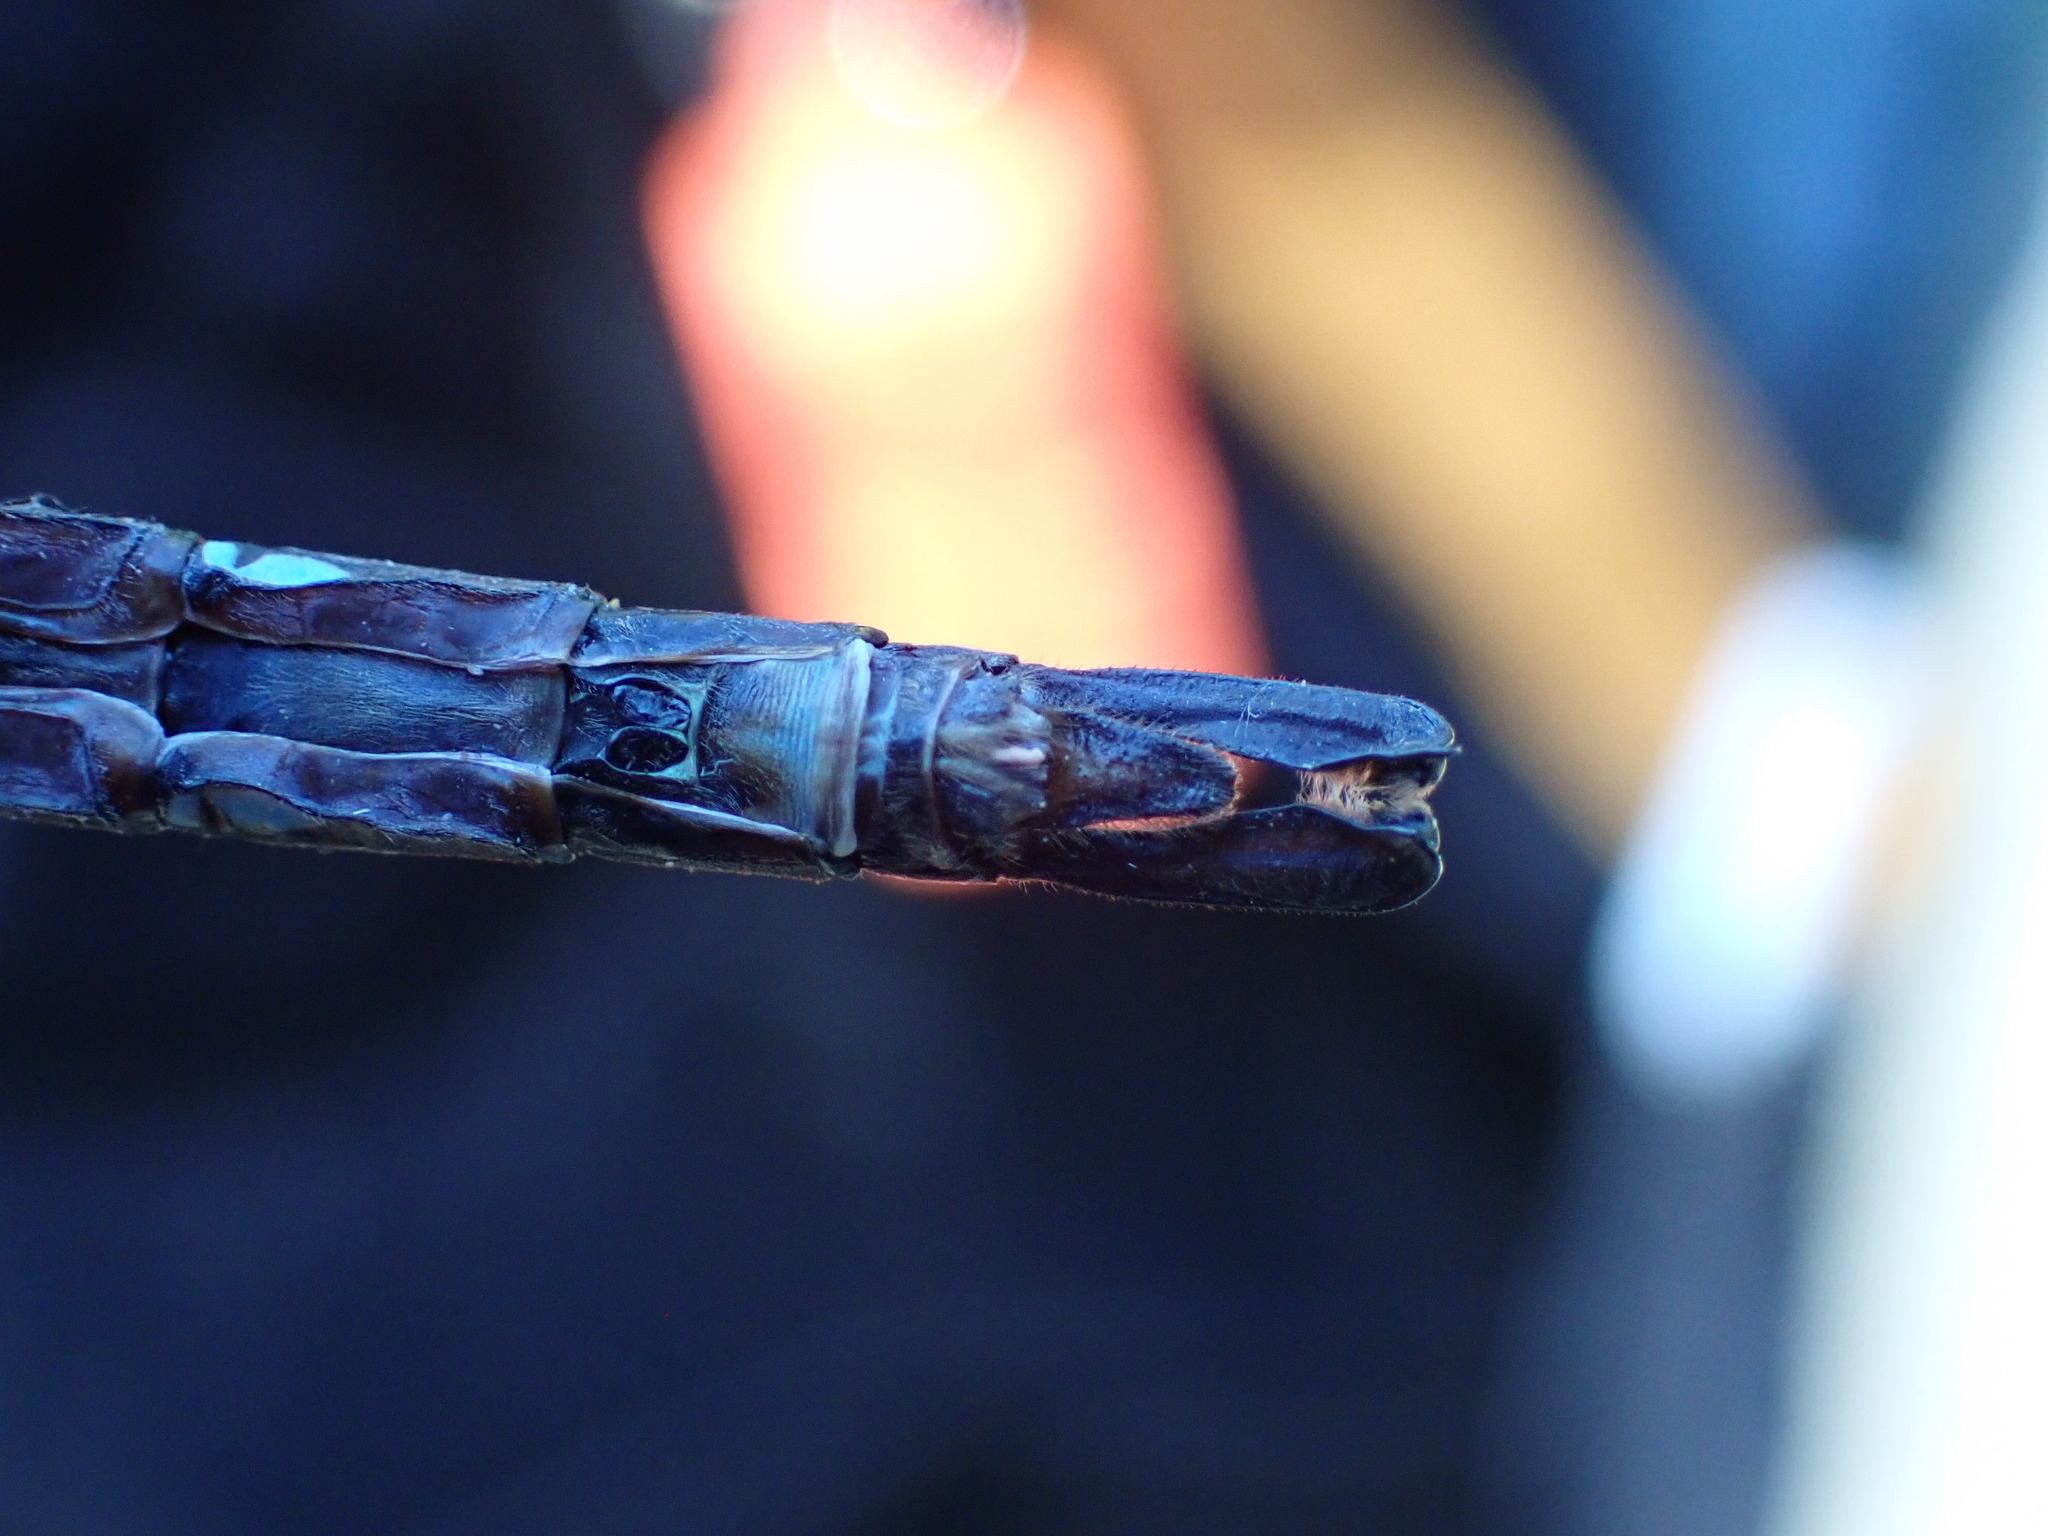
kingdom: Animalia
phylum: Arthropoda
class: Insecta
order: Odonata
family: Aeshnidae
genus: Aeshna
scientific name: Aeshna palmata
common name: Paddle-tailed darner
